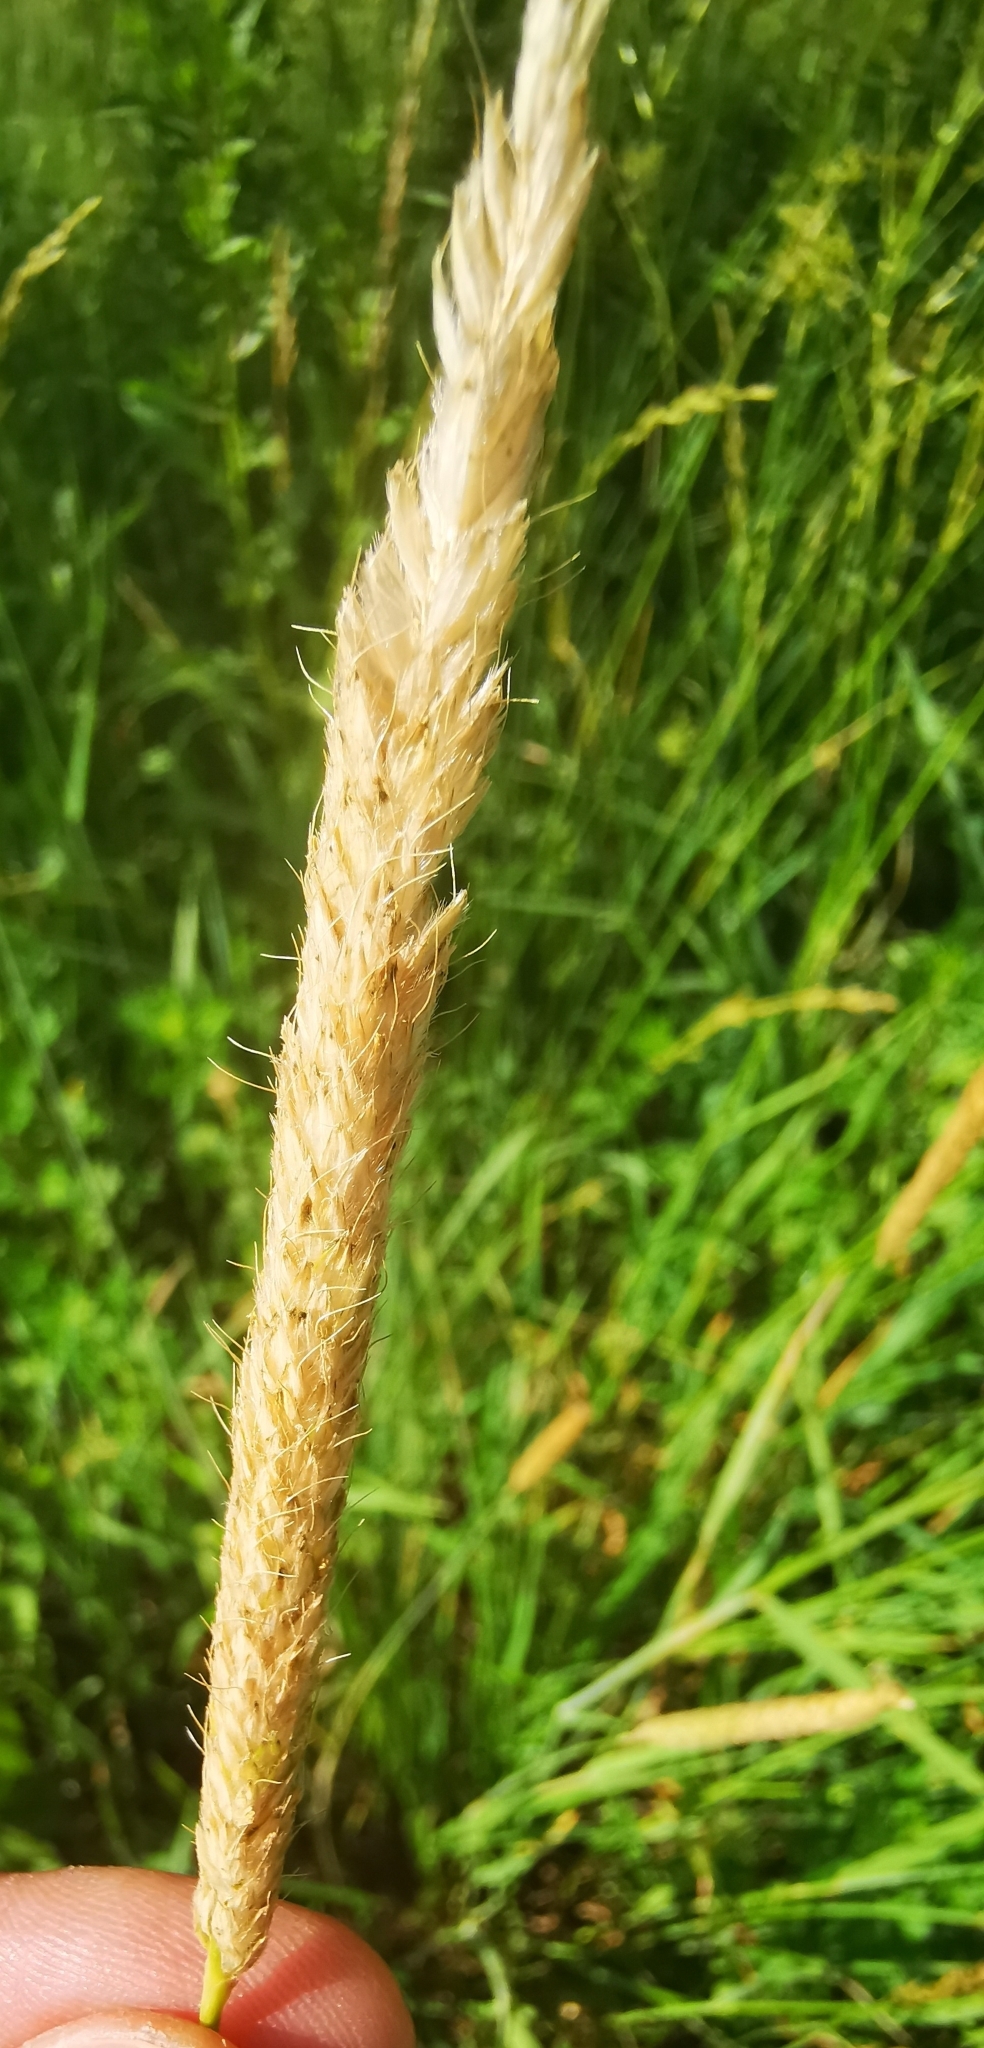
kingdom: Plantae
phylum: Tracheophyta
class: Liliopsida
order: Poales
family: Poaceae
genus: Alopecurus
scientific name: Alopecurus pratensis
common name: Meadow foxtail
